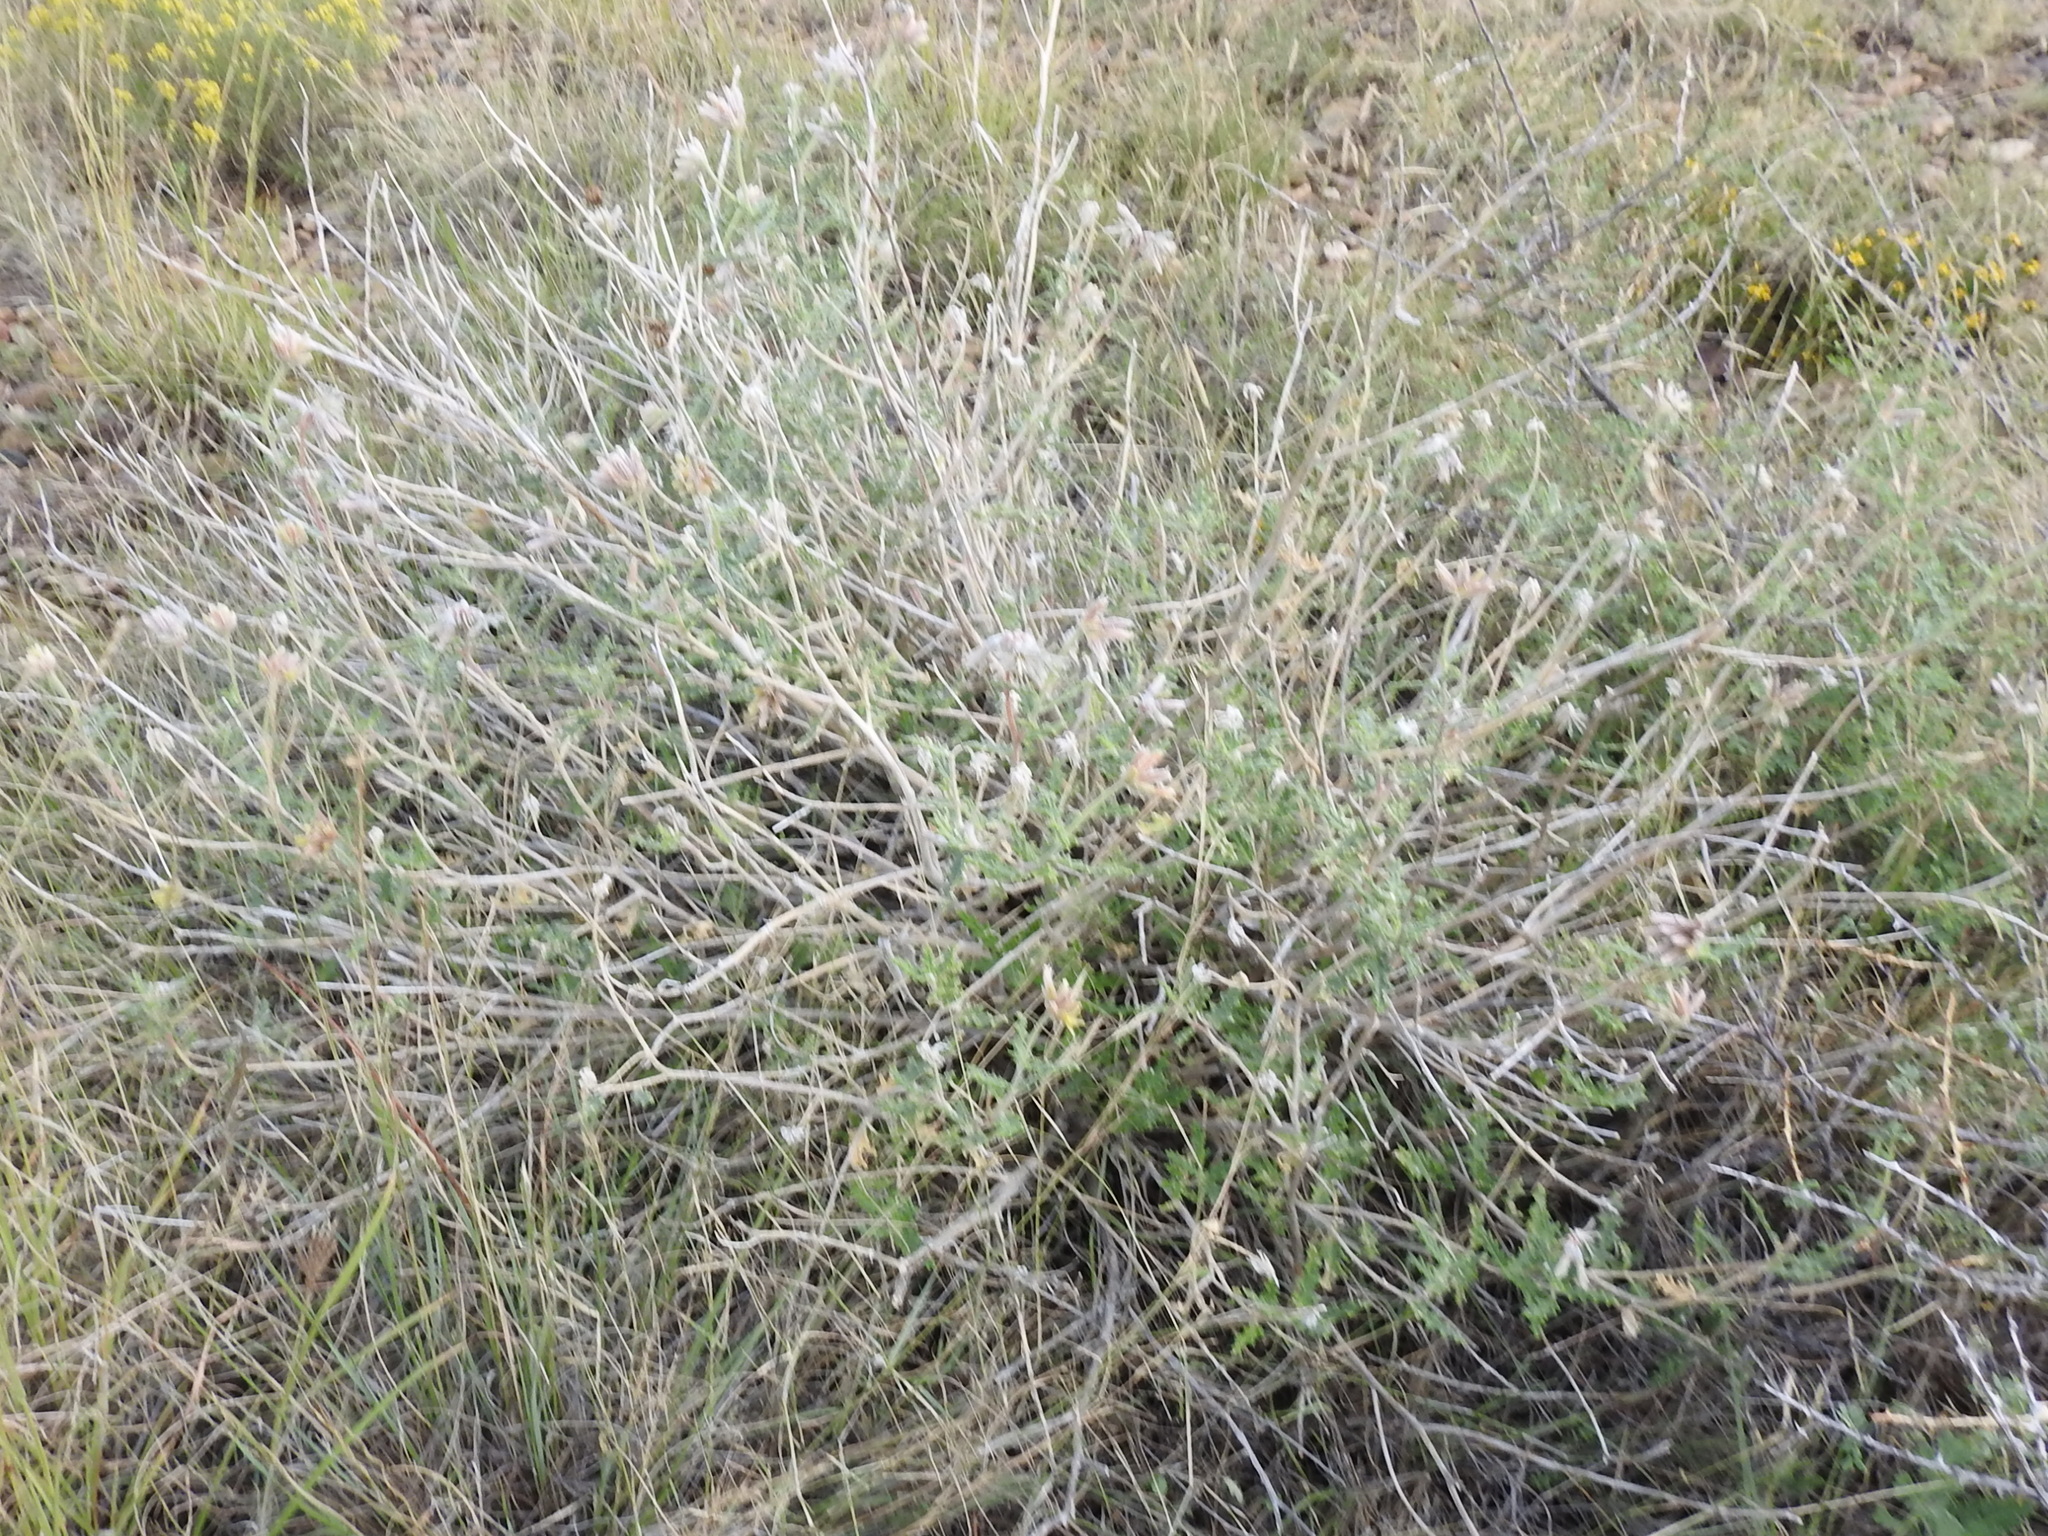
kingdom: Plantae
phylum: Tracheophyta
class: Magnoliopsida
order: Cornales
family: Loasaceae
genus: Cevallia
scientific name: Cevallia sinuata
